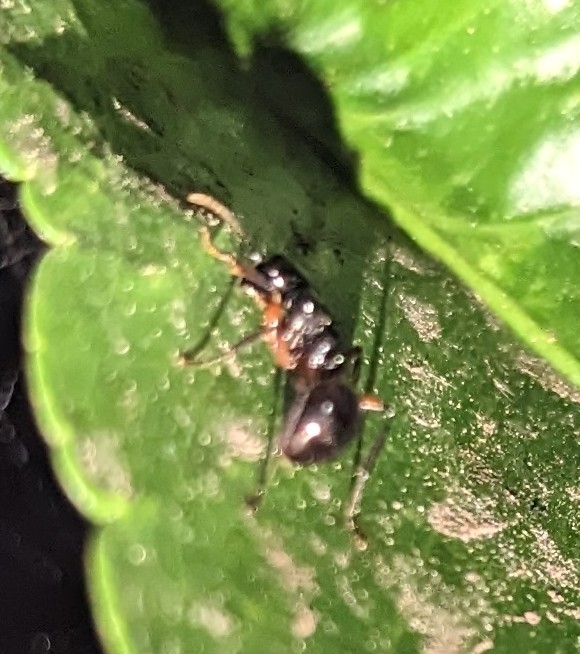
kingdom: Animalia
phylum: Arthropoda
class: Insecta
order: Hymenoptera
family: Formicidae
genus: Polyrhachis
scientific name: Polyrhachis femorata
